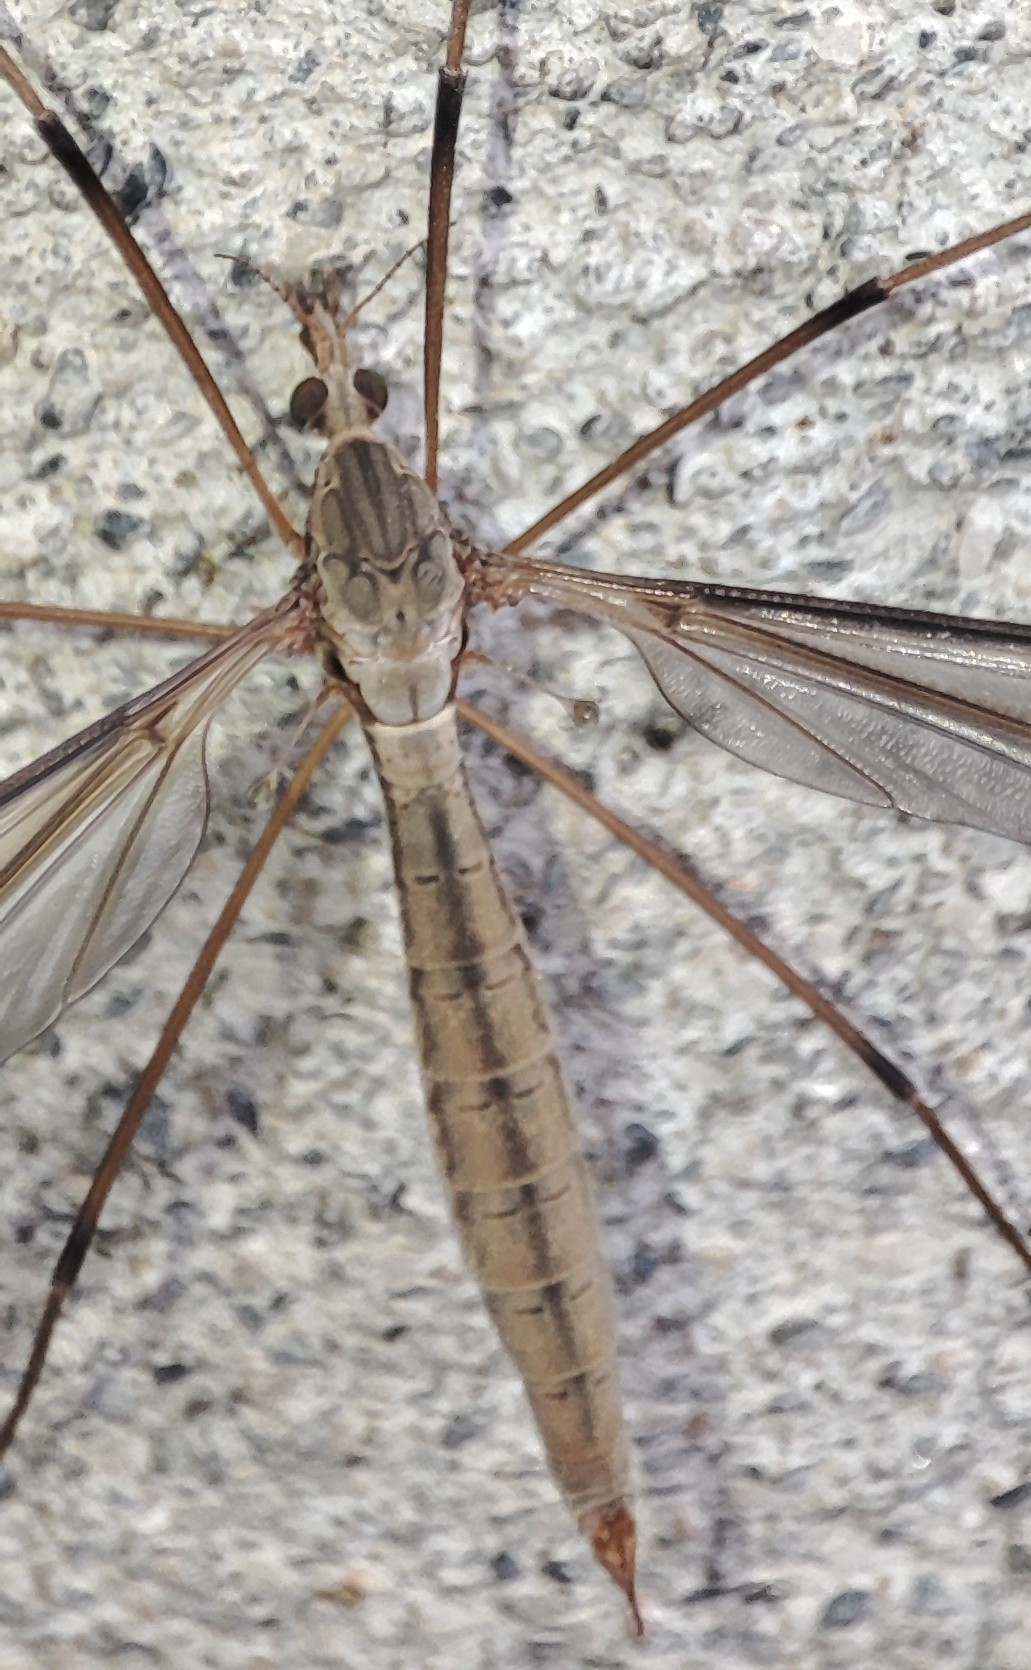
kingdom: Animalia
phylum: Arthropoda
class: Insecta
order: Diptera
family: Tipulidae
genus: Tipula
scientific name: Tipula oleracea
